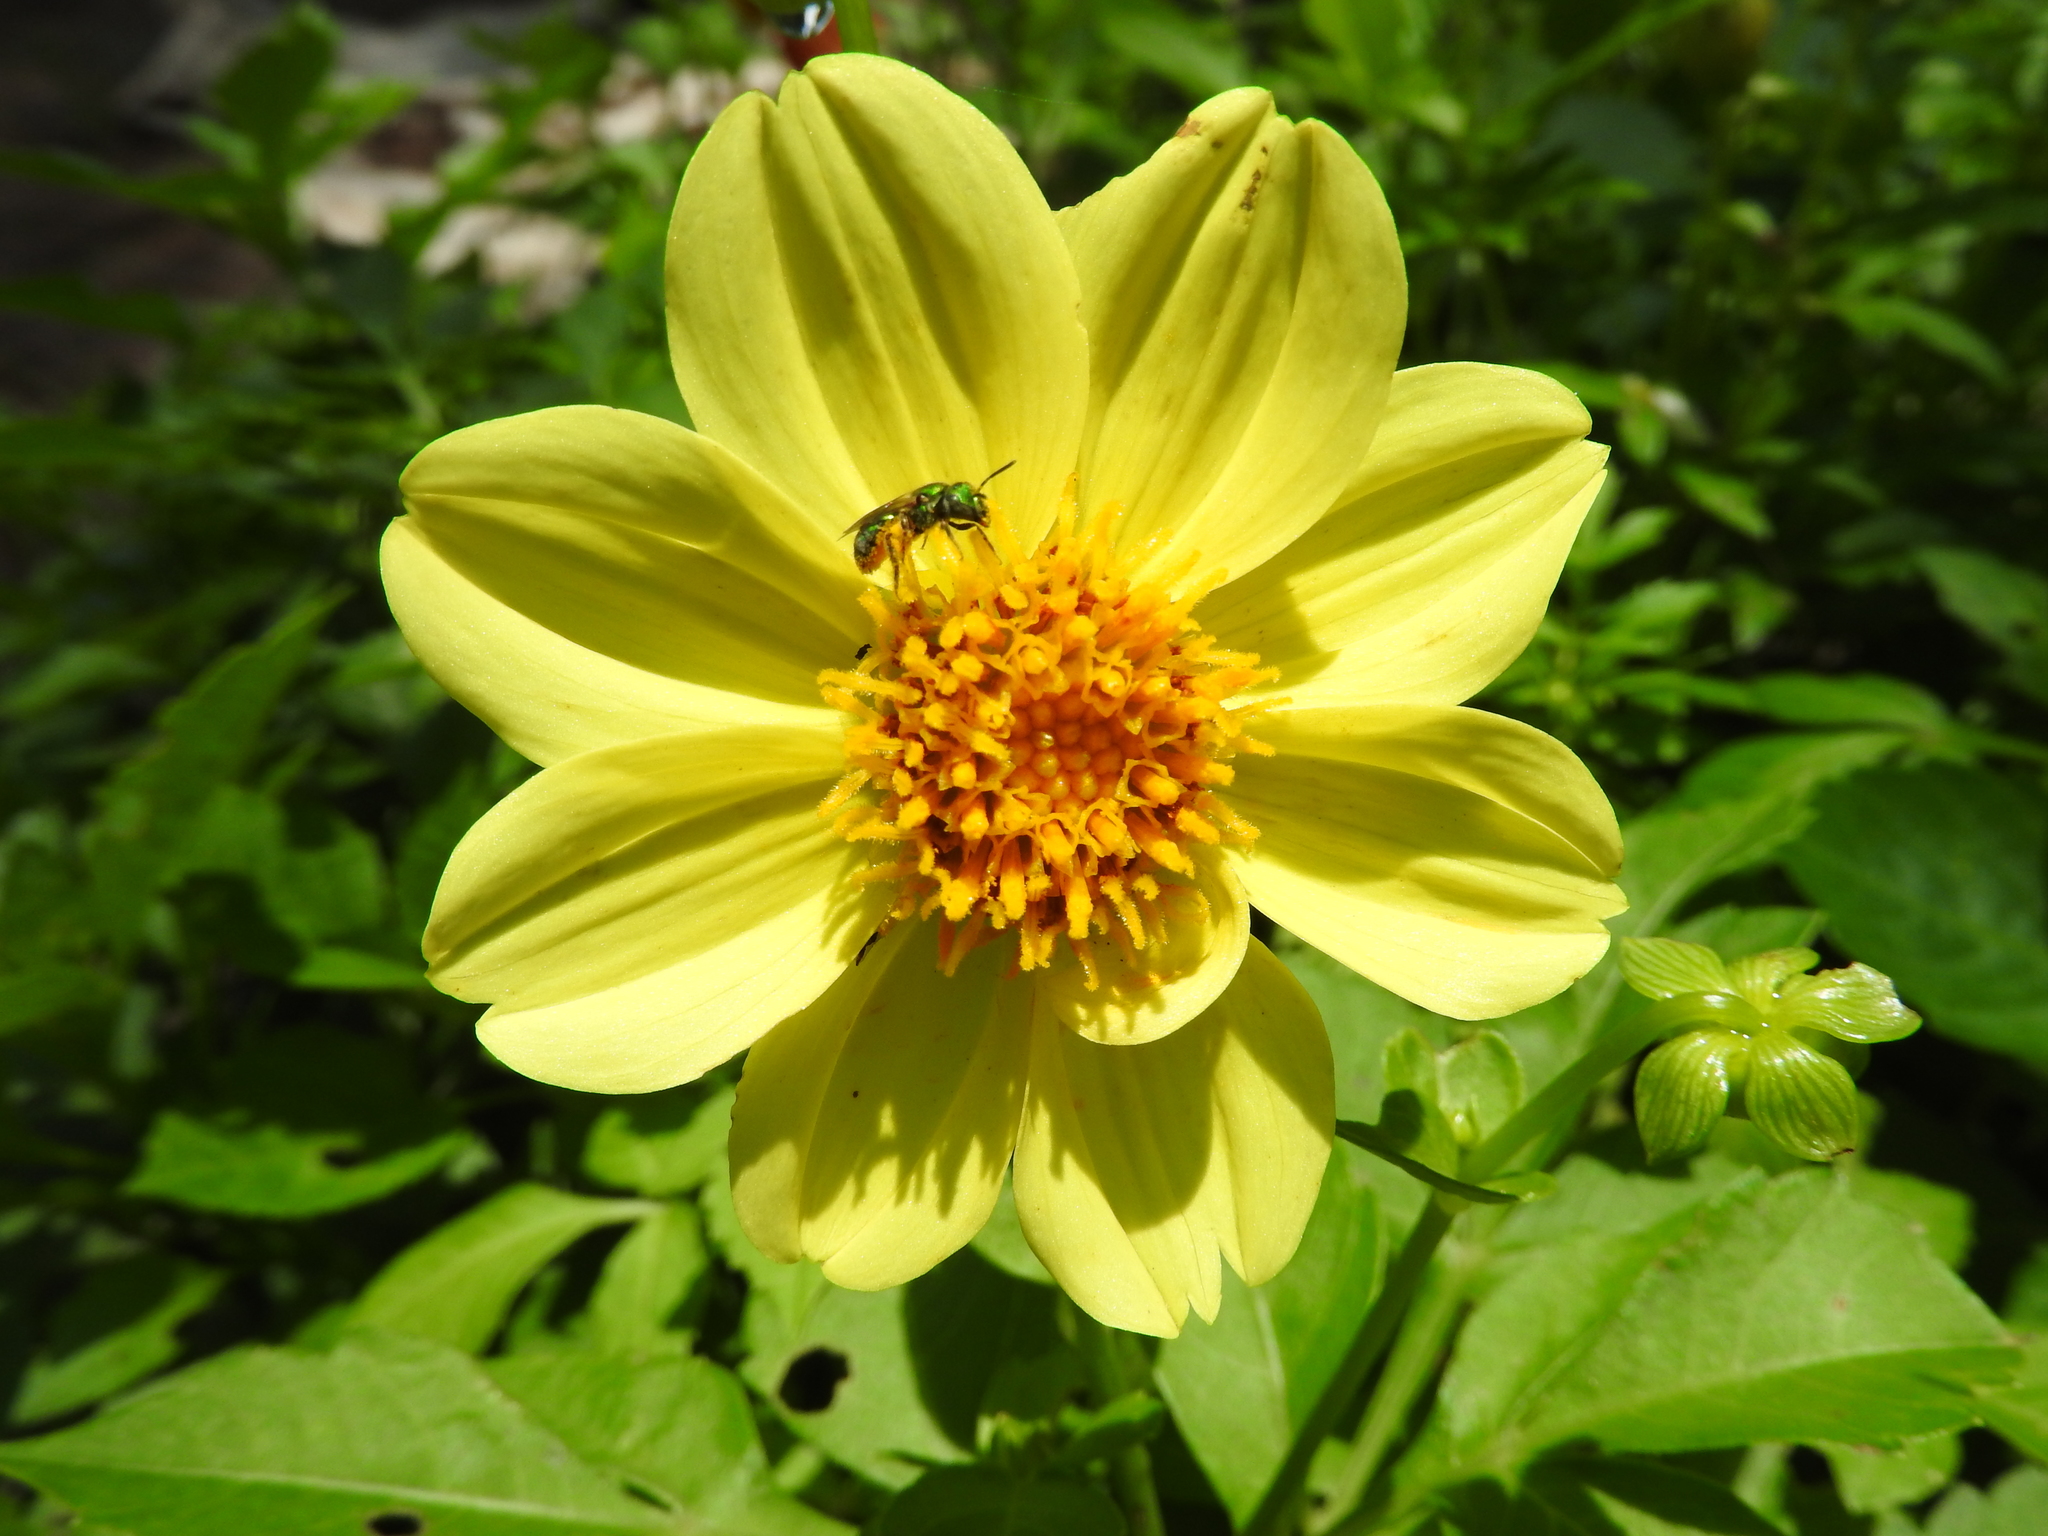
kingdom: Plantae
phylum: Tracheophyta
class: Magnoliopsida
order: Asterales
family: Asteraceae
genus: Dahlia
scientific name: Dahlia coccinea
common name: Red dahlia
